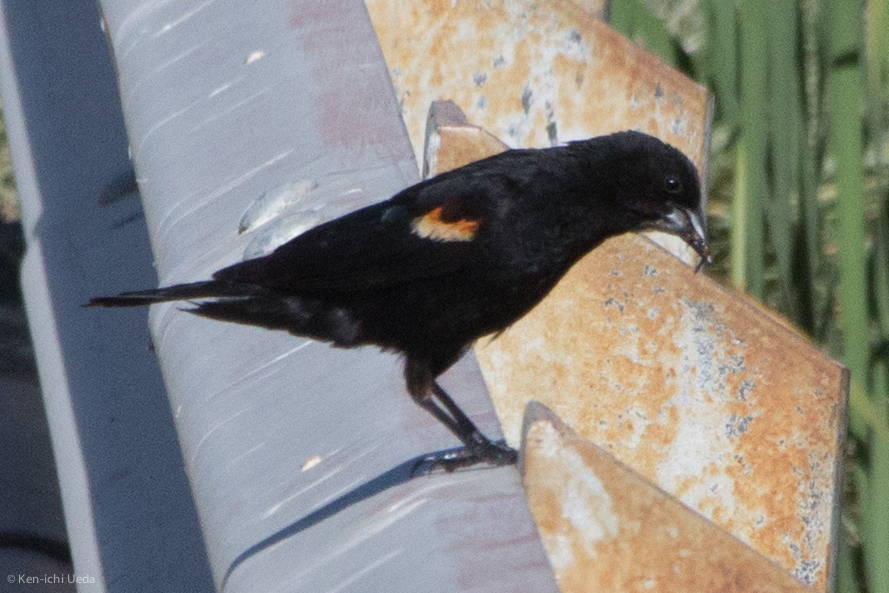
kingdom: Animalia
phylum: Chordata
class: Aves
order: Passeriformes
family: Icteridae
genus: Agelaius
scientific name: Agelaius phoeniceus
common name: Red-winged blackbird
